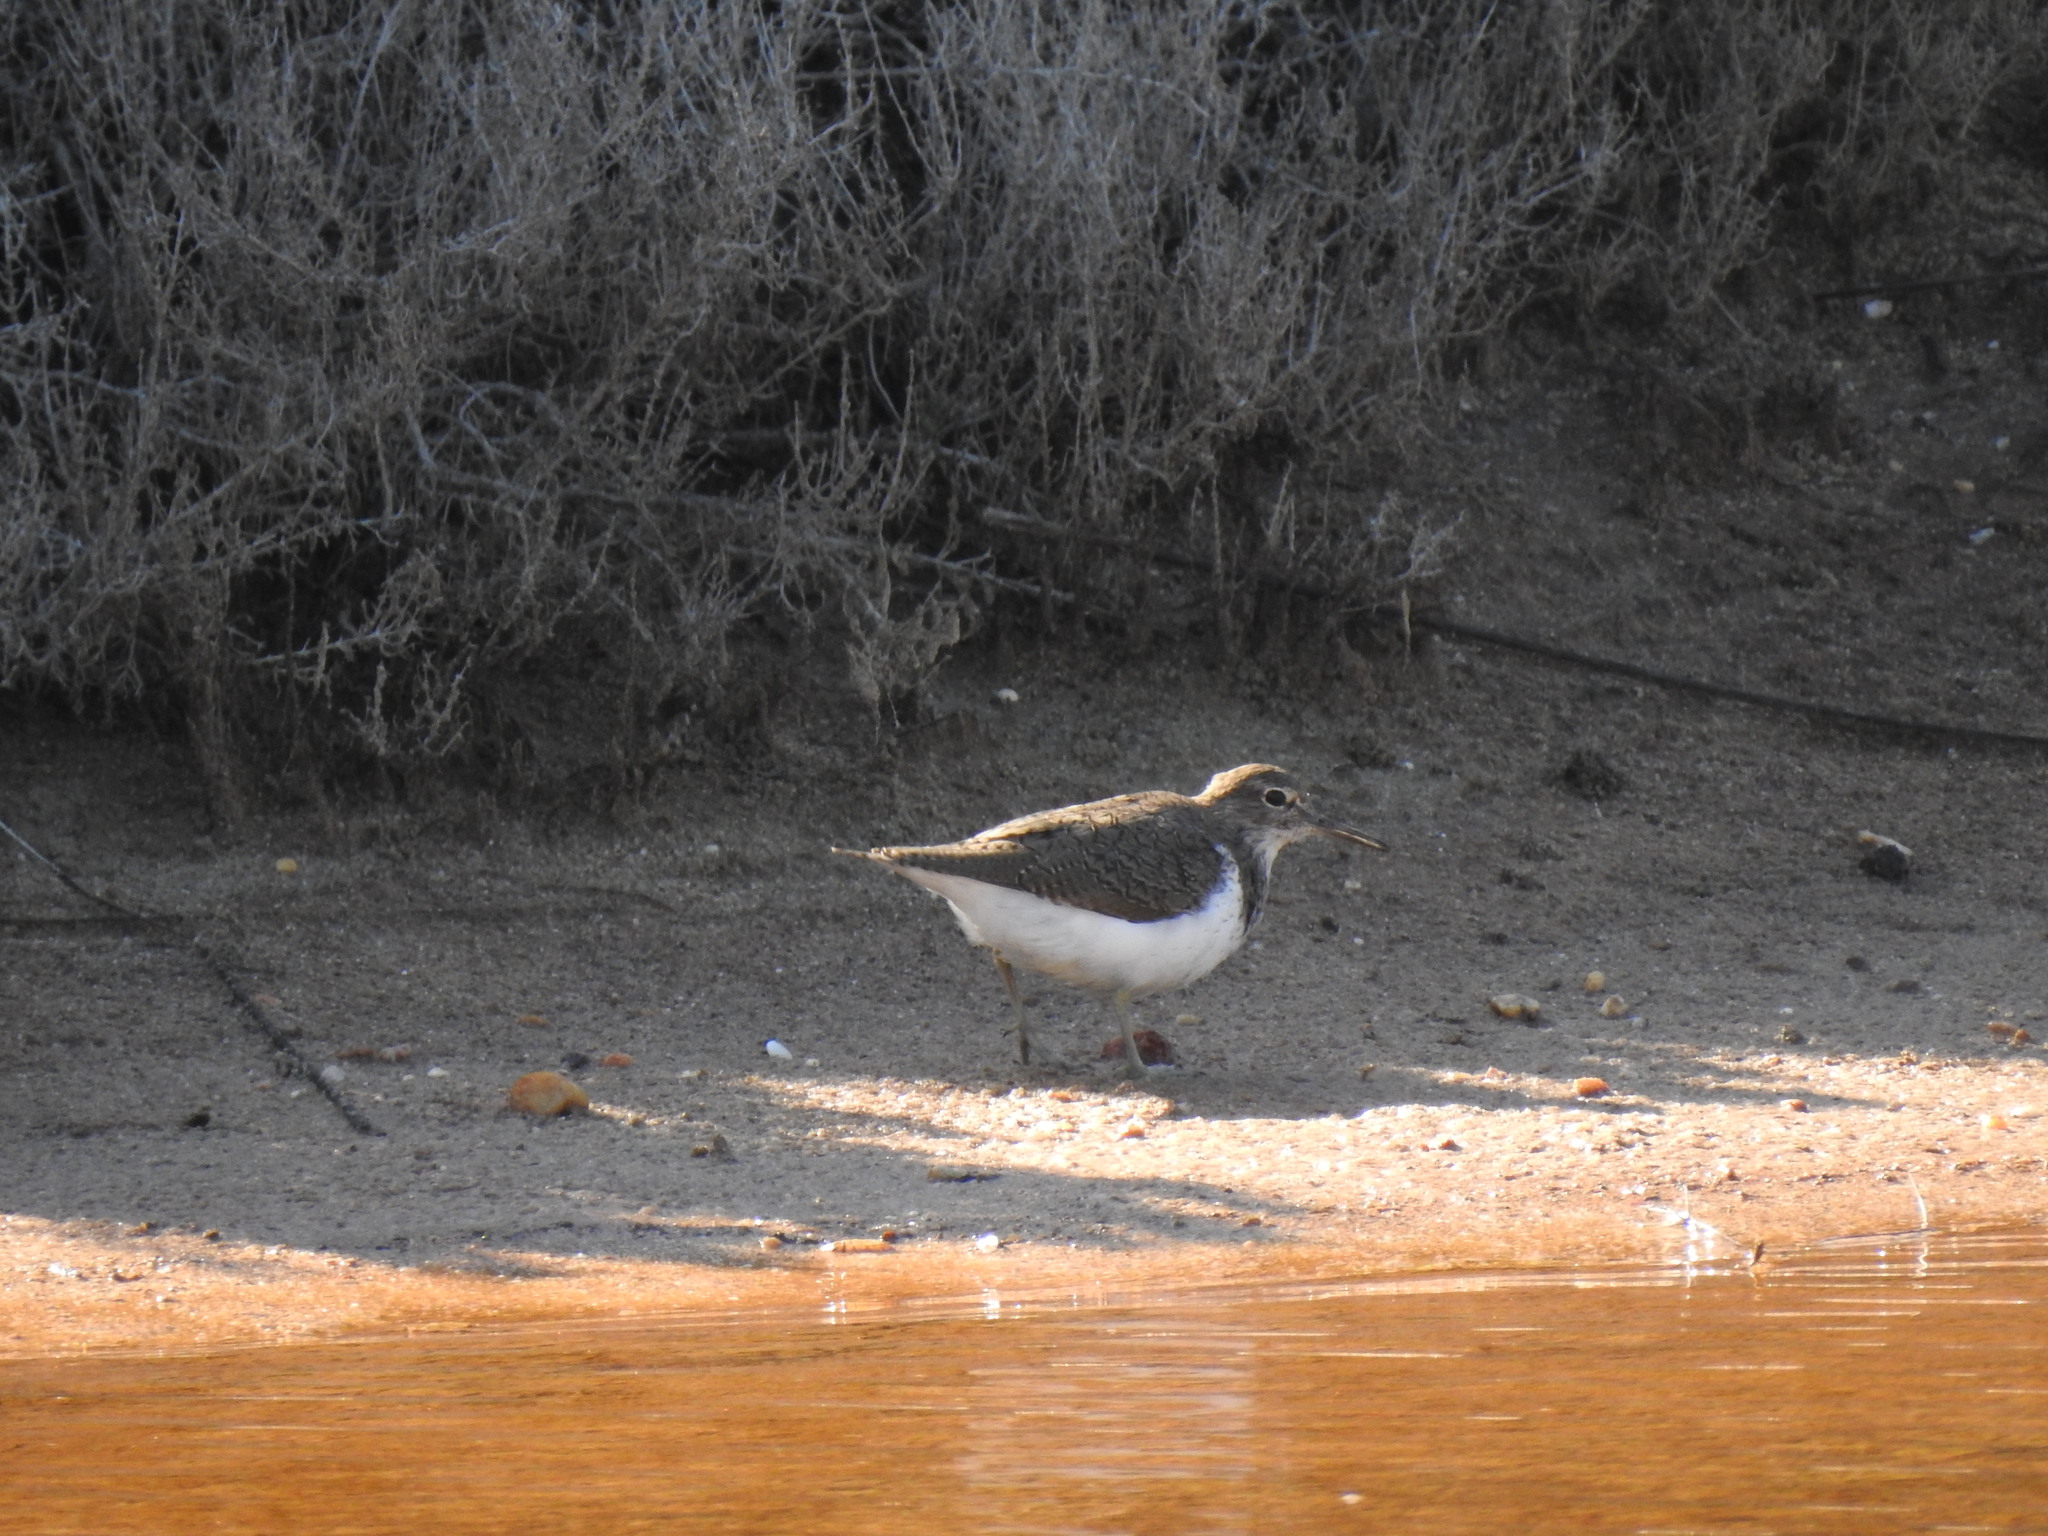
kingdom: Animalia
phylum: Chordata
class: Aves
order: Charadriiformes
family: Scolopacidae
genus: Actitis
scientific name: Actitis hypoleucos
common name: Common sandpiper
